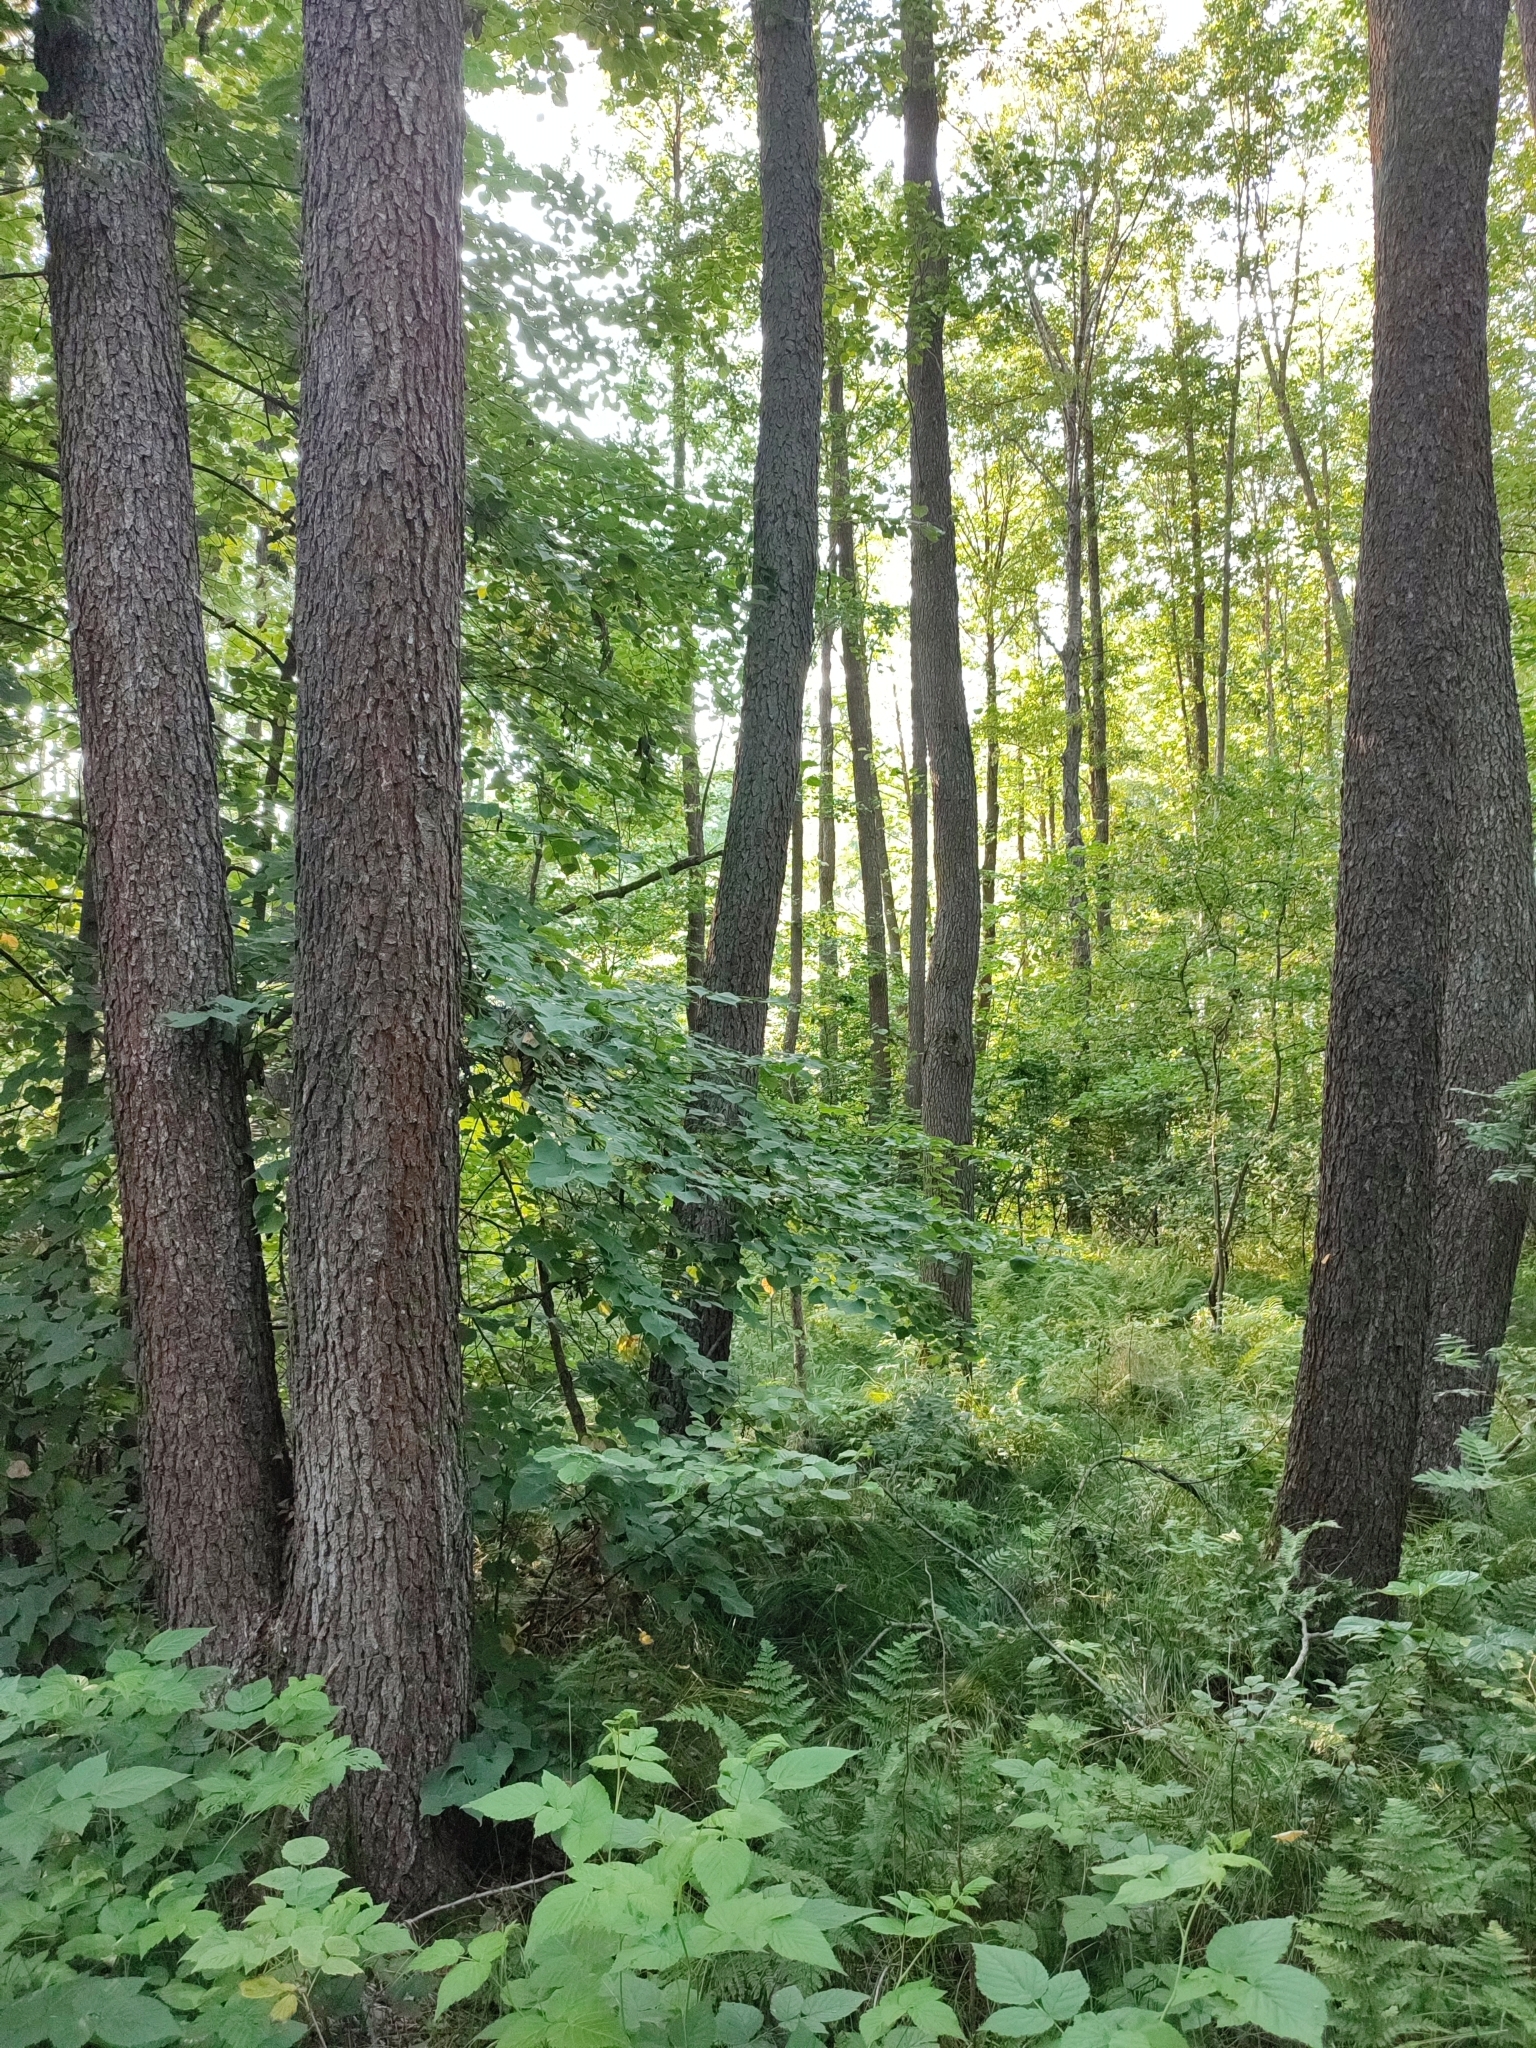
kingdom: Plantae
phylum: Tracheophyta
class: Magnoliopsida
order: Fagales
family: Betulaceae
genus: Alnus
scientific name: Alnus glutinosa
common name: Black alder
